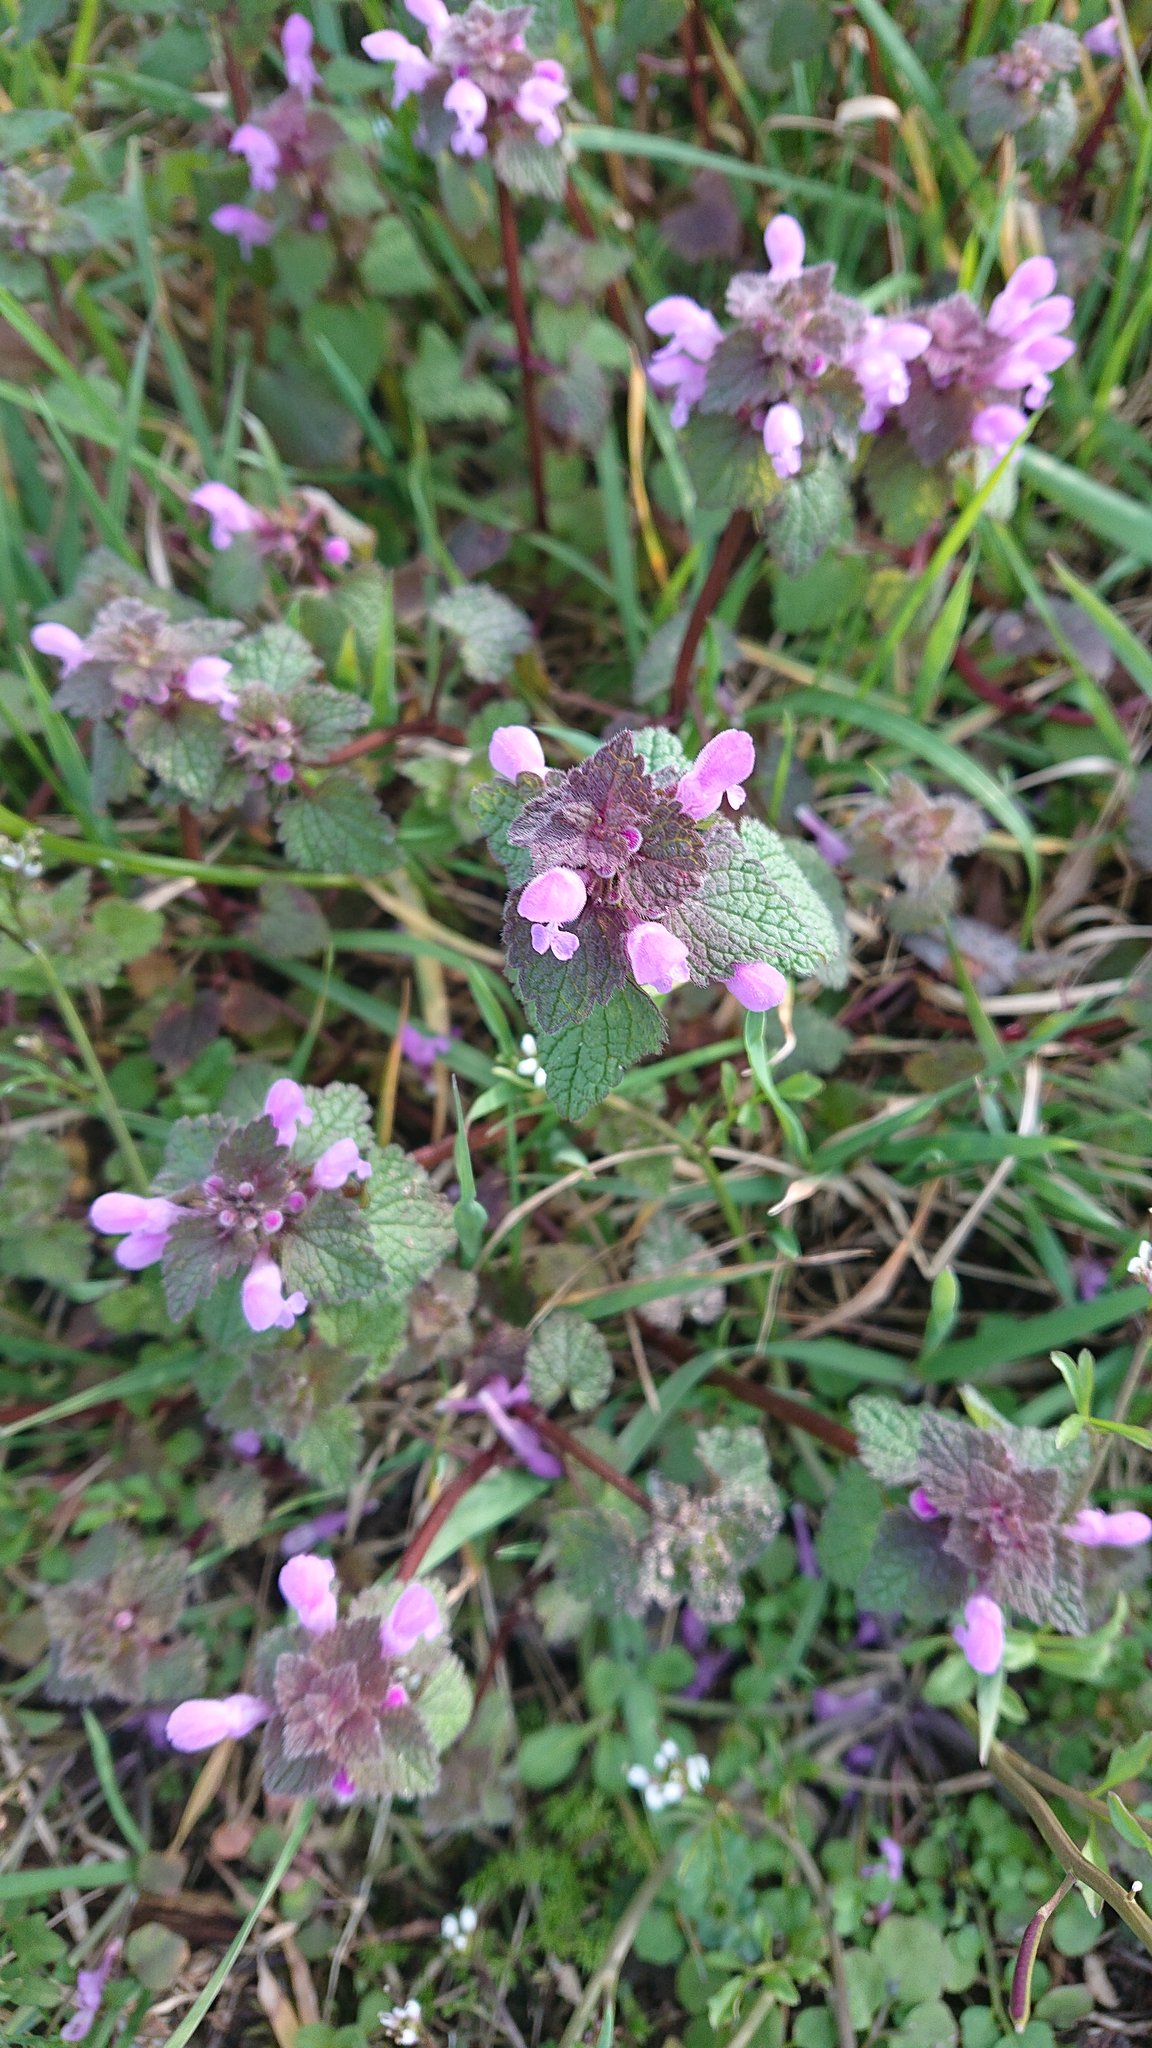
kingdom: Plantae
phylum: Tracheophyta
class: Magnoliopsida
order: Lamiales
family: Lamiaceae
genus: Lamium
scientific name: Lamium purpureum
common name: Red dead-nettle
